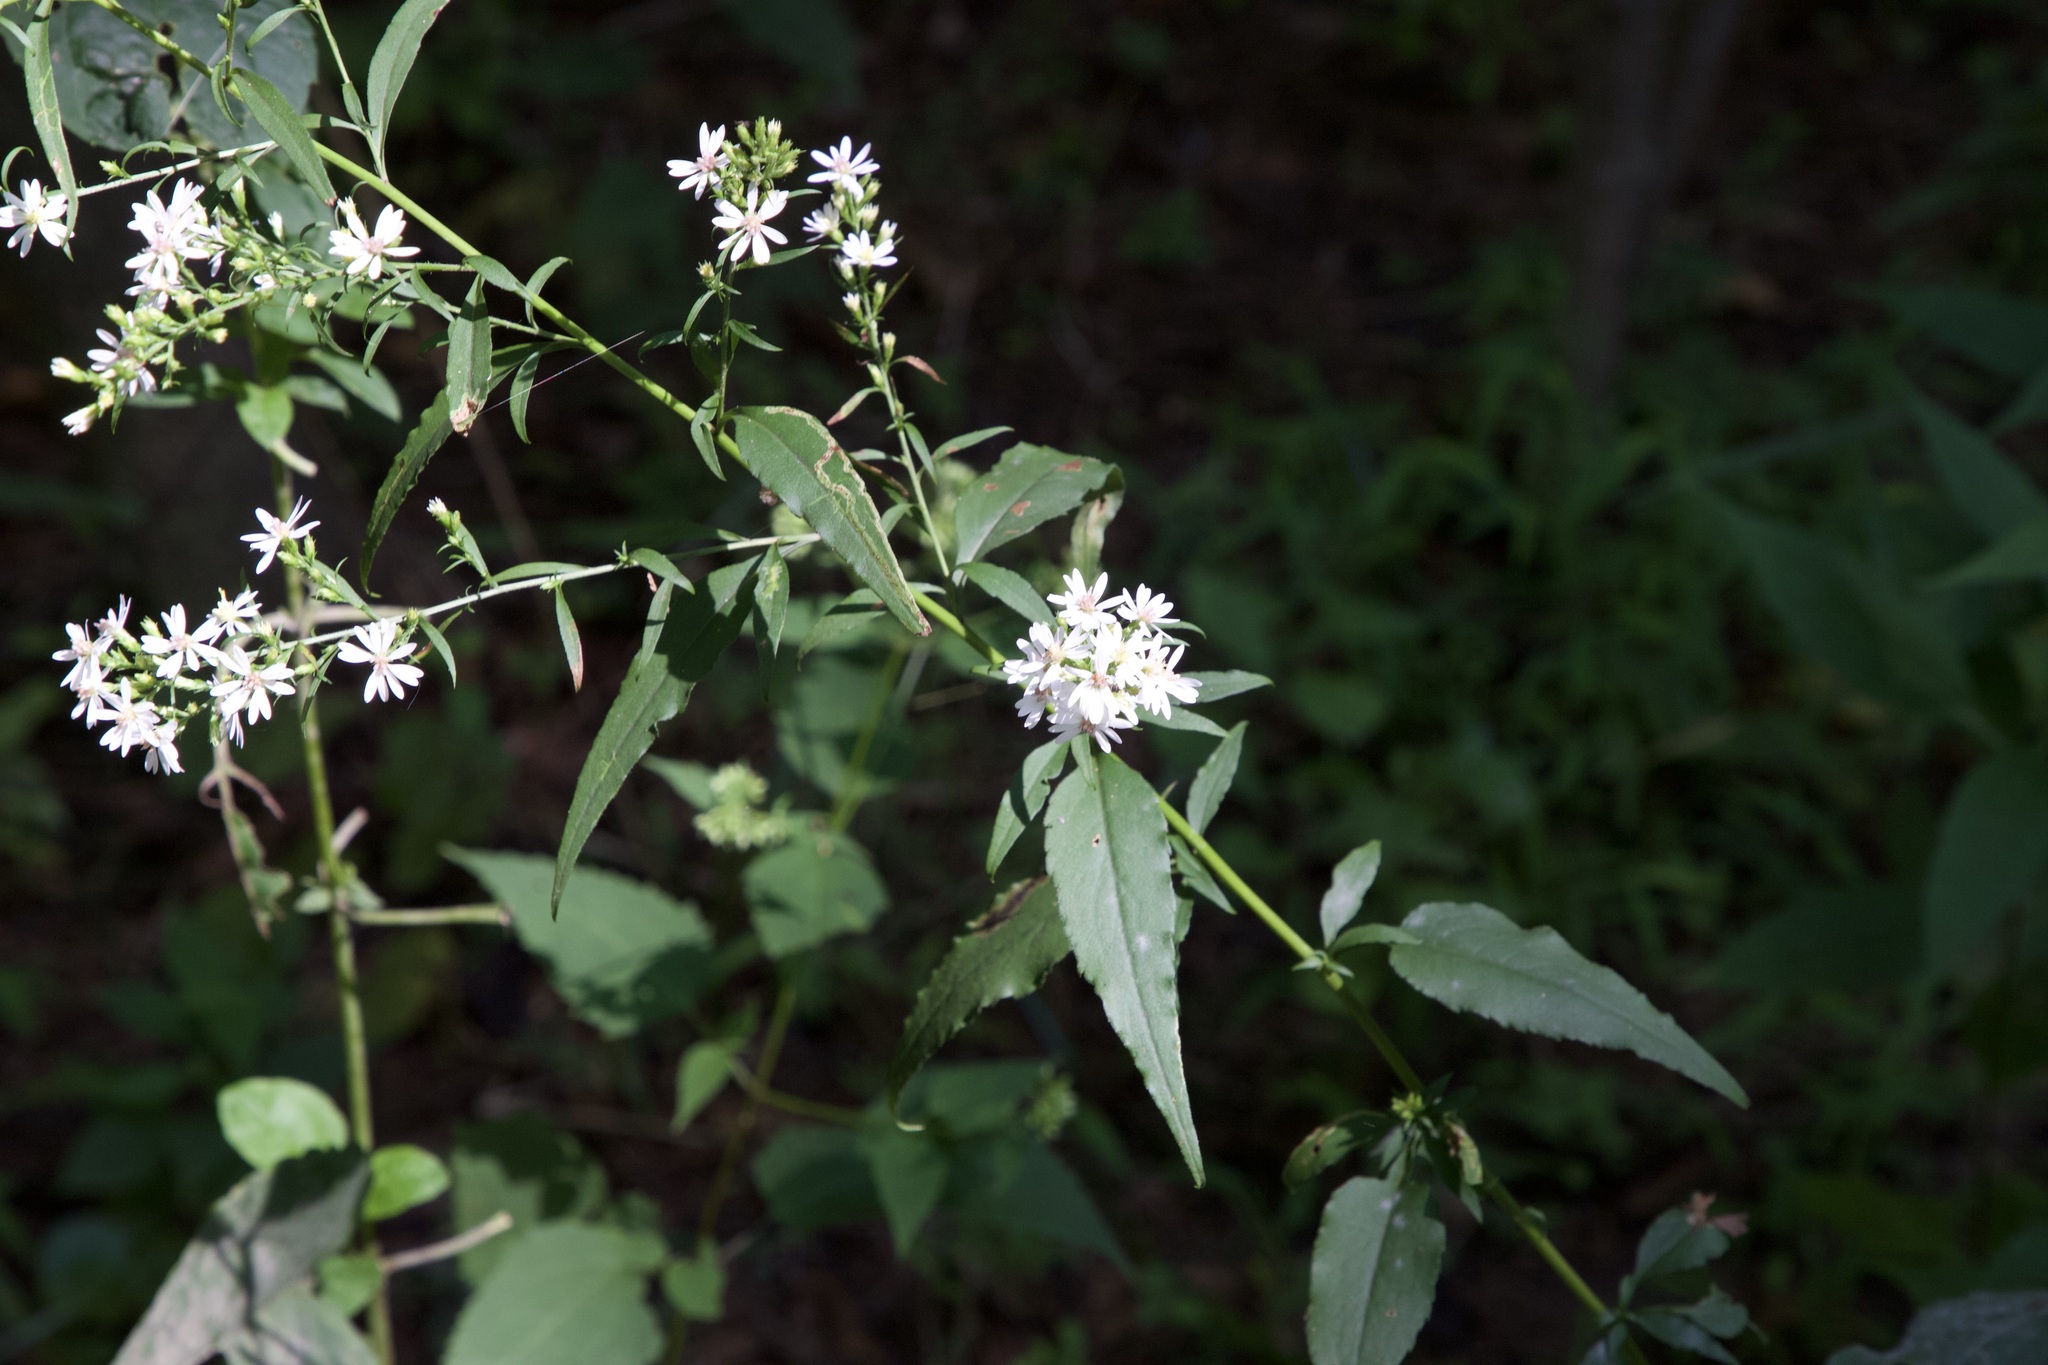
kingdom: Plantae
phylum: Tracheophyta
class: Magnoliopsida
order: Asterales
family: Asteraceae
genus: Symphyotrichum
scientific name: Symphyotrichum urophyllum
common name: Arrow-leaved aster
